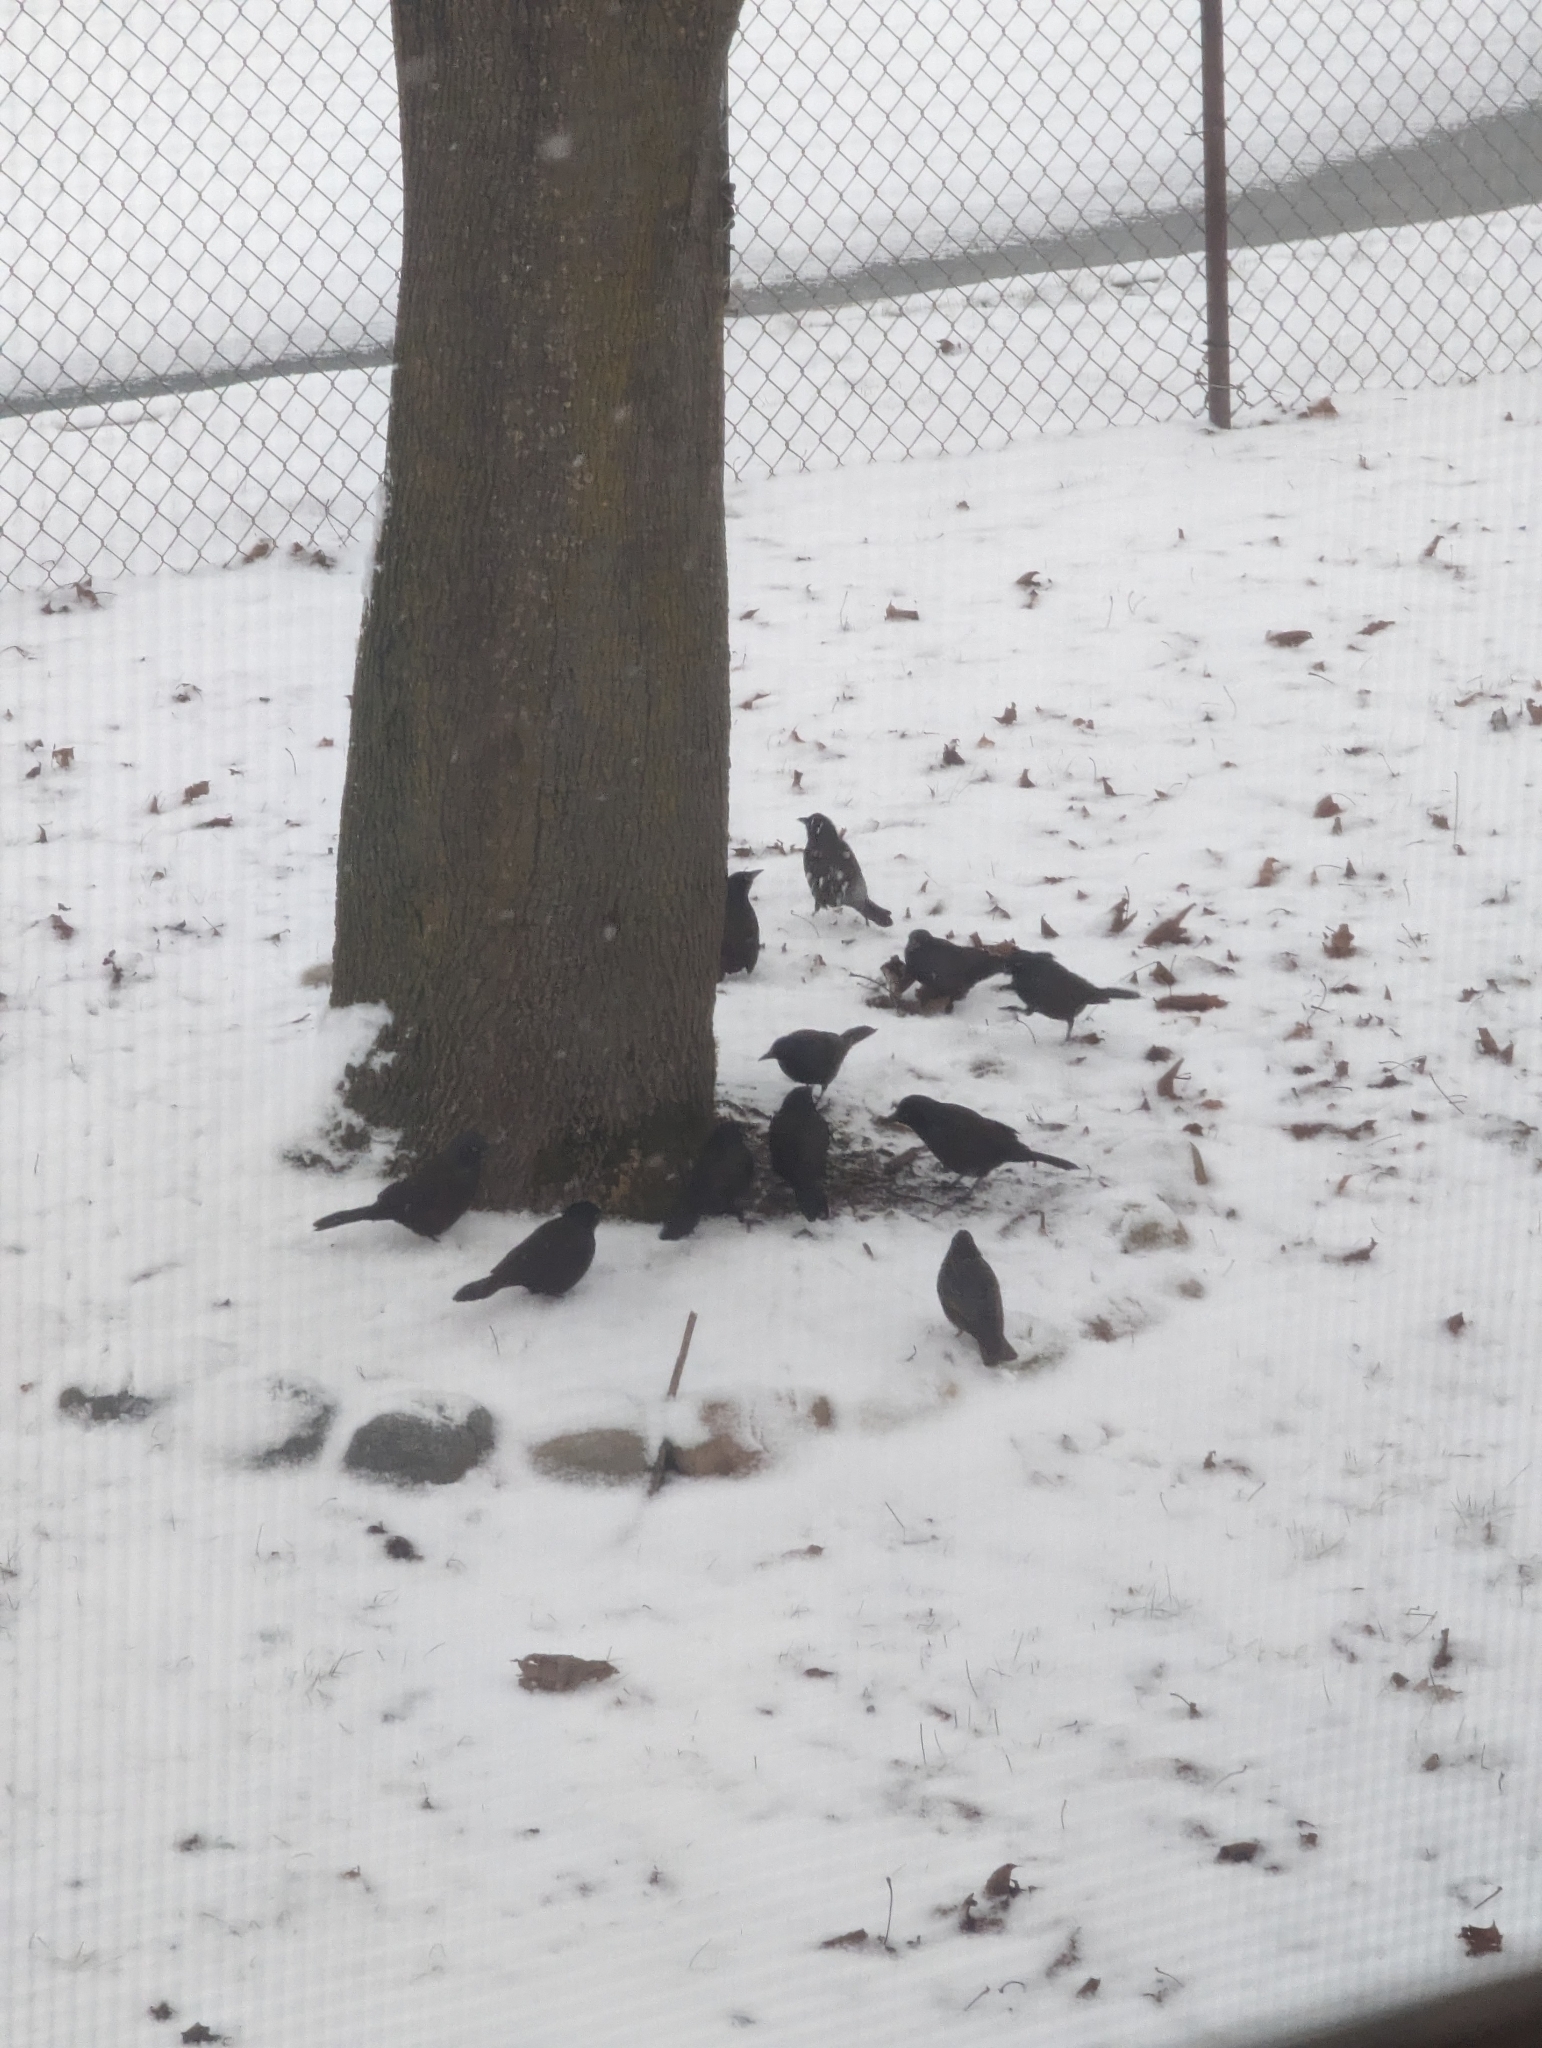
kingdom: Animalia
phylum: Chordata
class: Aves
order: Passeriformes
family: Icteridae
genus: Quiscalus
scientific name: Quiscalus quiscula
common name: Common grackle
